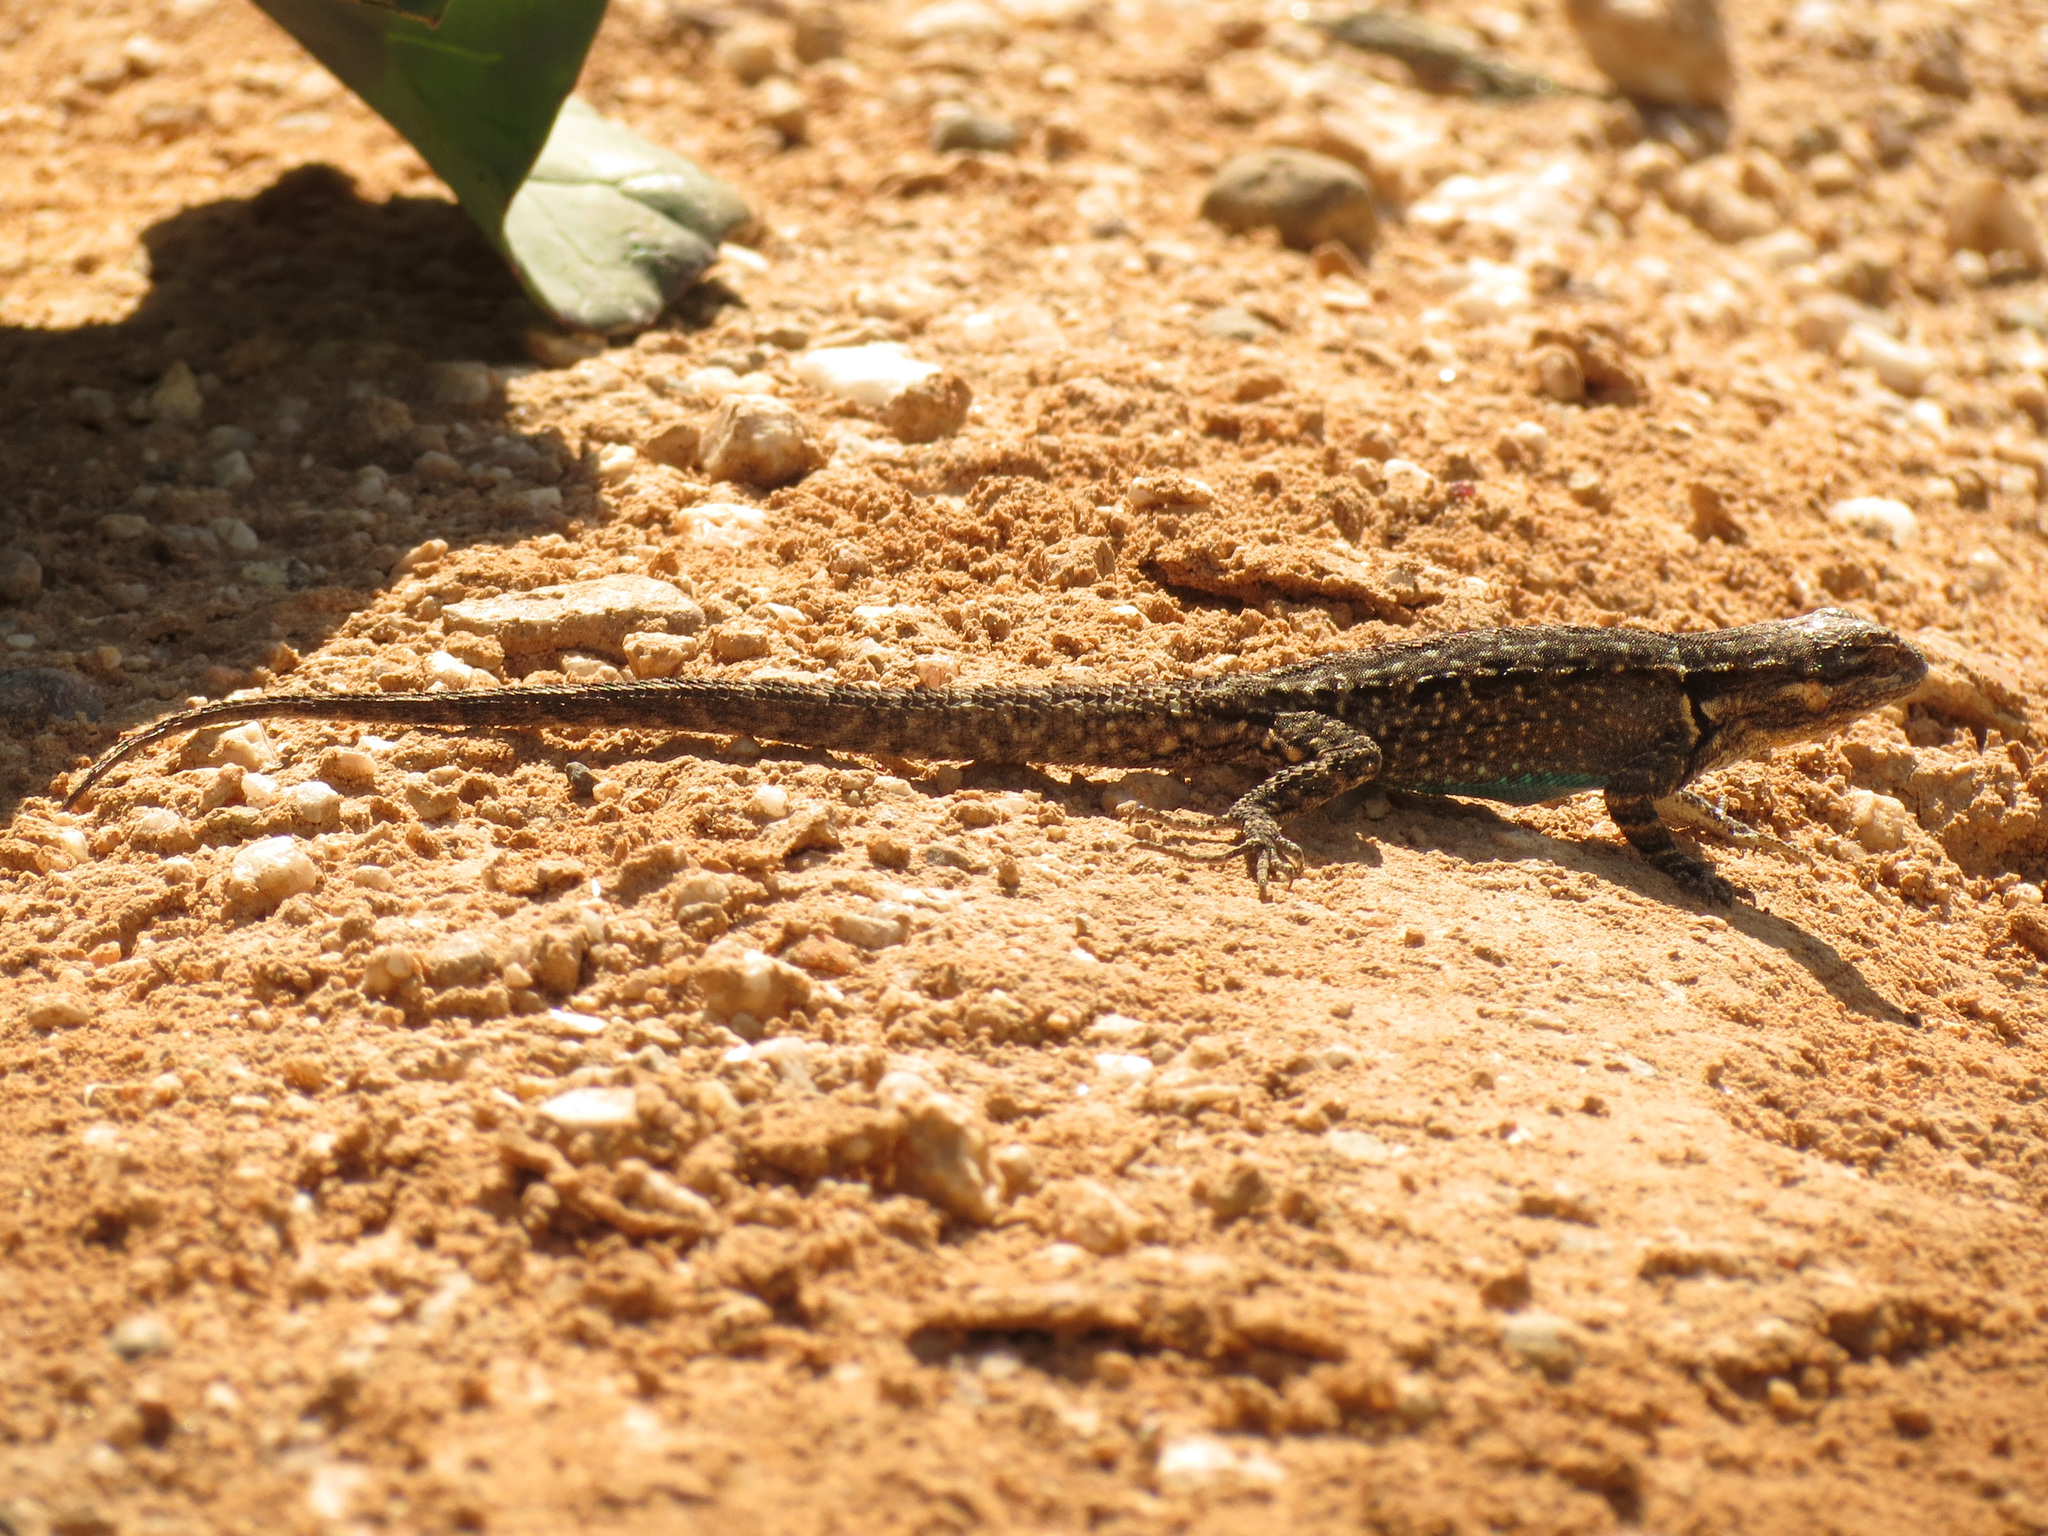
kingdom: Animalia
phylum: Chordata
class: Squamata
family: Phrynosomatidae
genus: Urosaurus
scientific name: Urosaurus ornatus
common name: Ornate tree lizard
